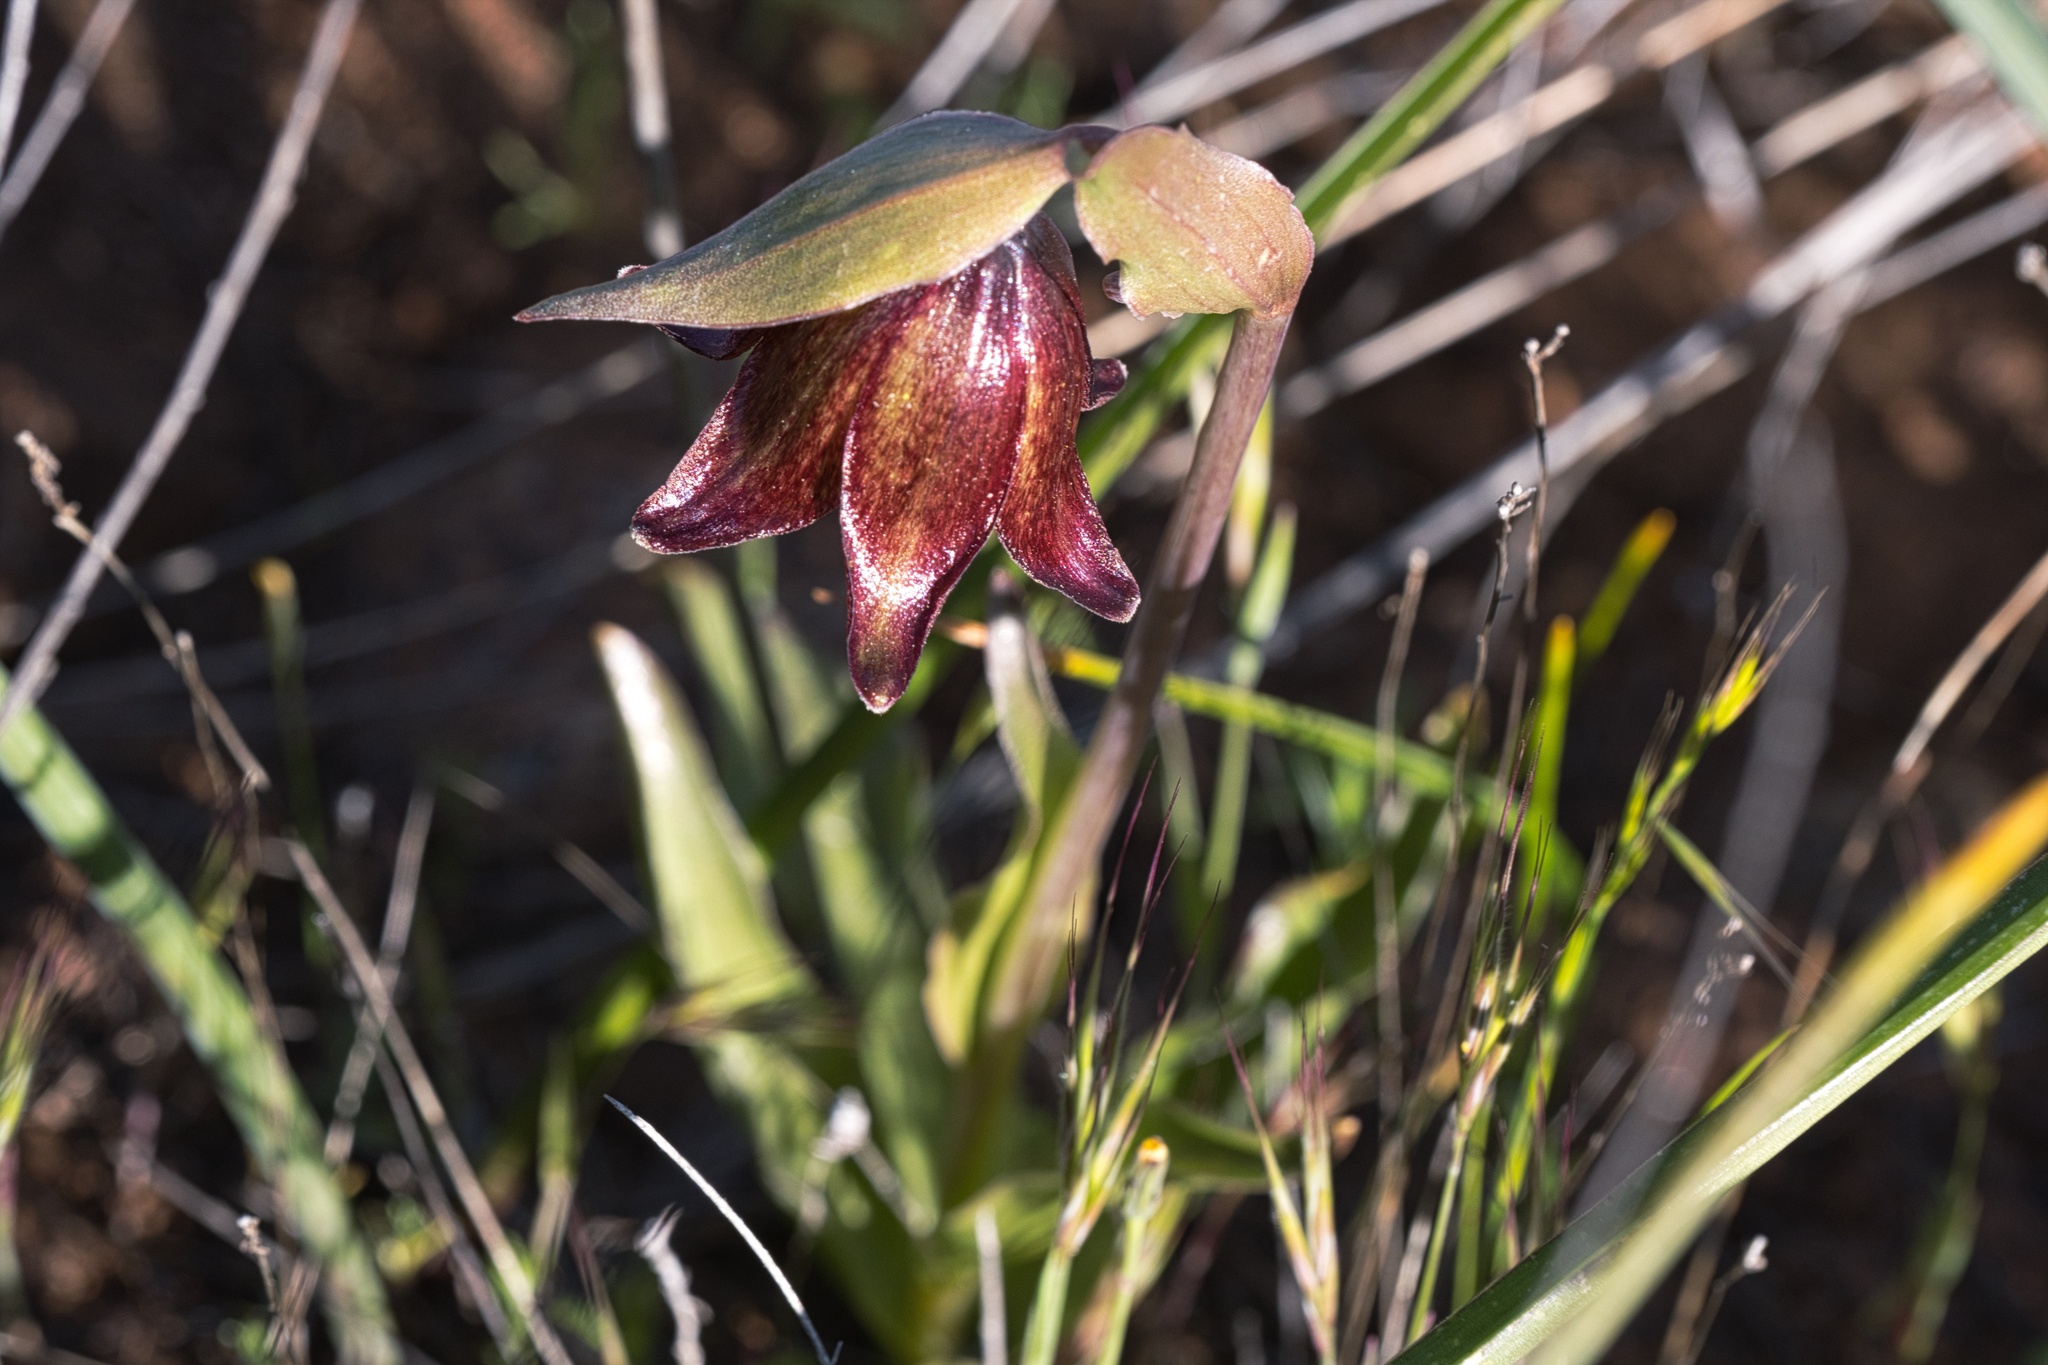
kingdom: Plantae
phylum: Tracheophyta
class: Liliopsida
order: Liliales
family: Liliaceae
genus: Fritillaria
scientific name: Fritillaria biflora
